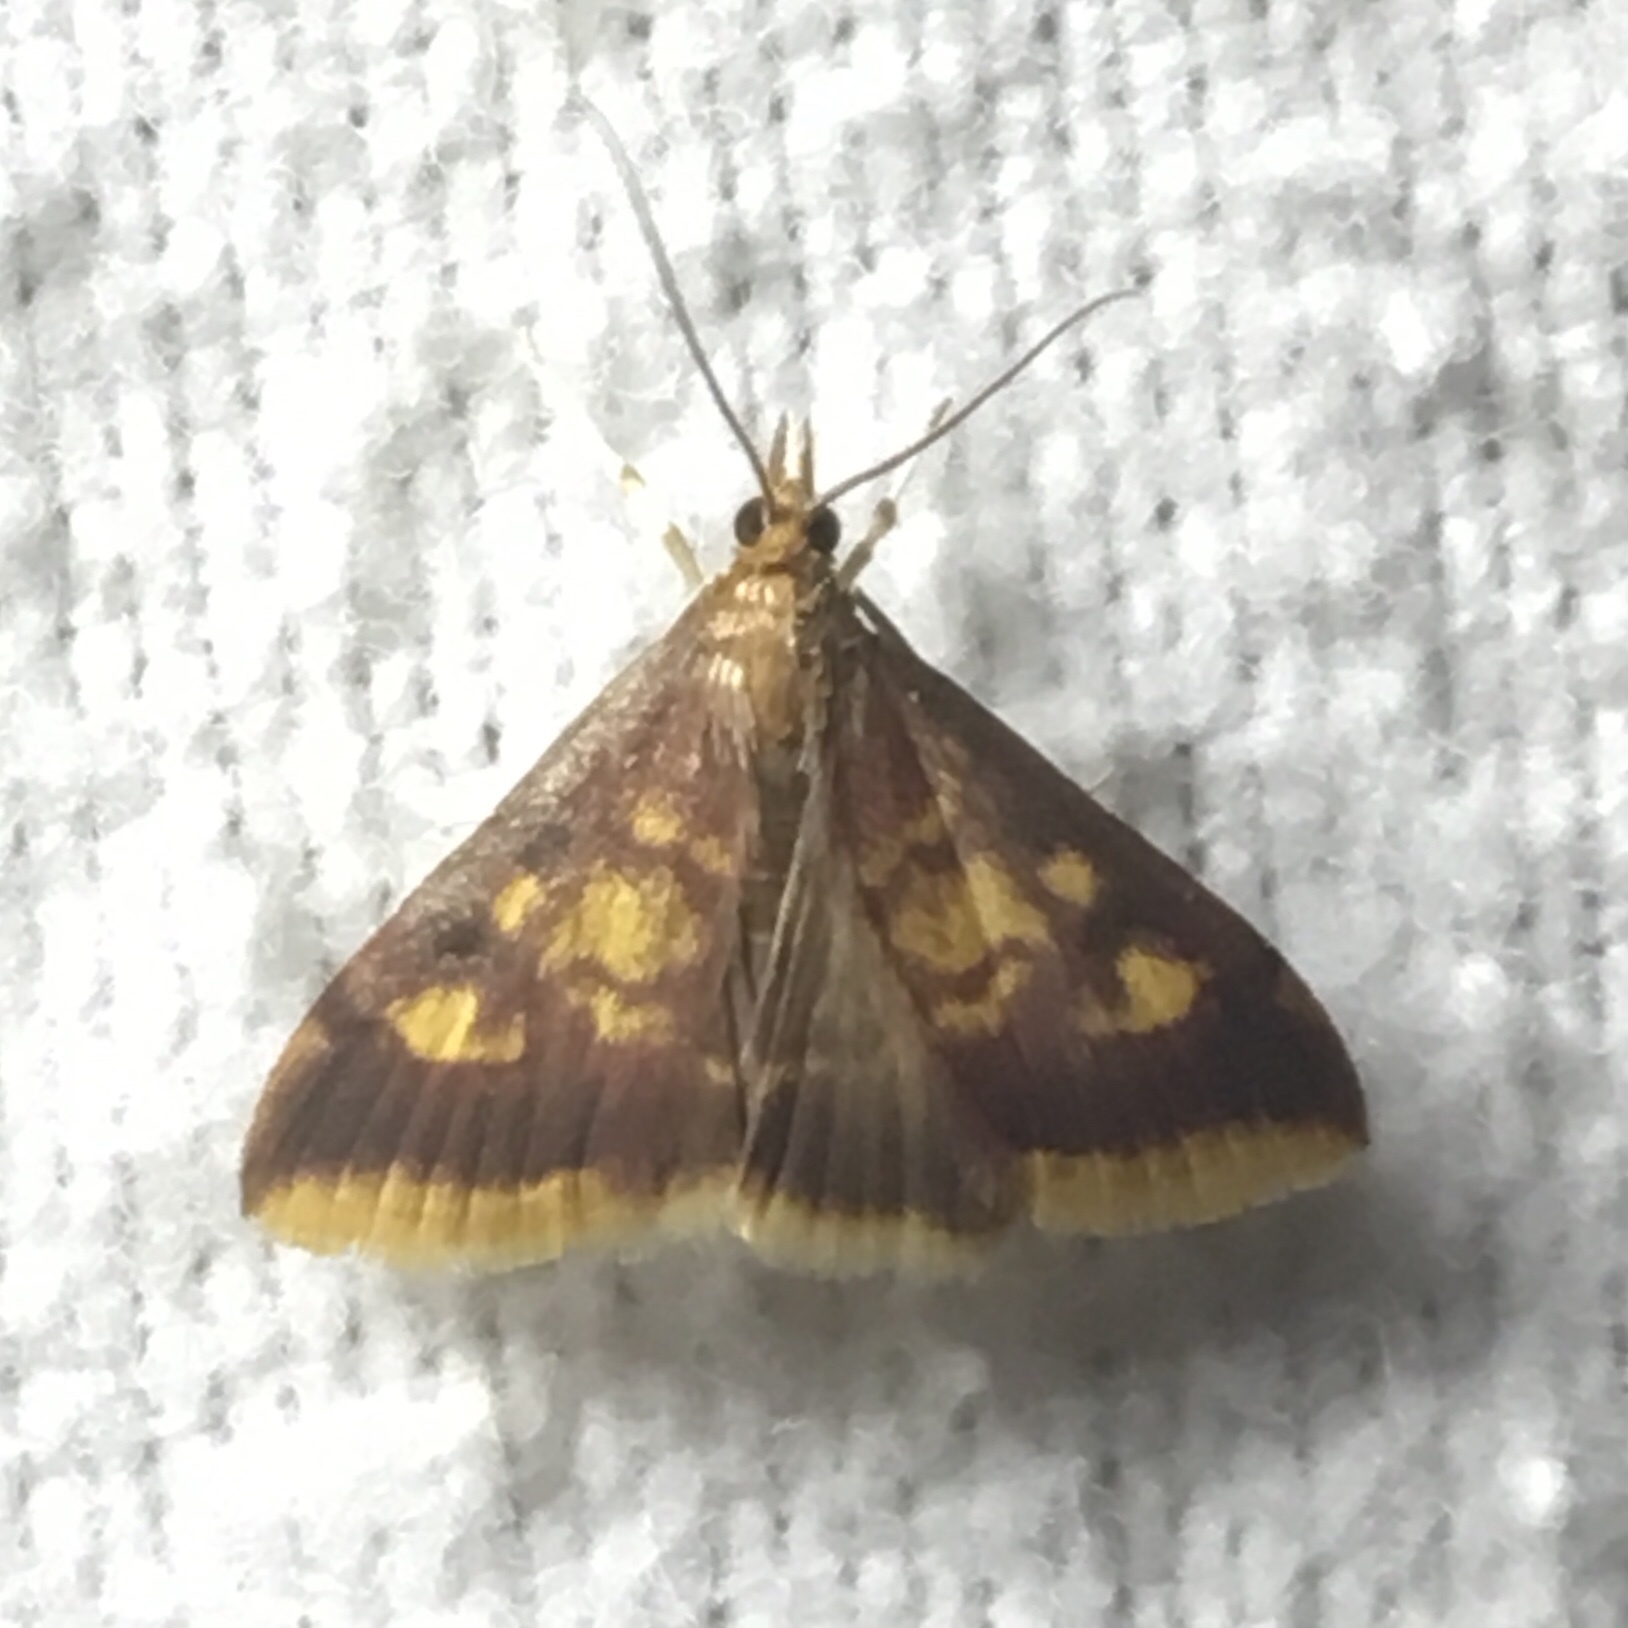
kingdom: Animalia
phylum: Arthropoda
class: Insecta
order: Lepidoptera
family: Crambidae
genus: Pyrausta
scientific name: Pyrausta acrionalis
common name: Mint-loving pyrausta moth
